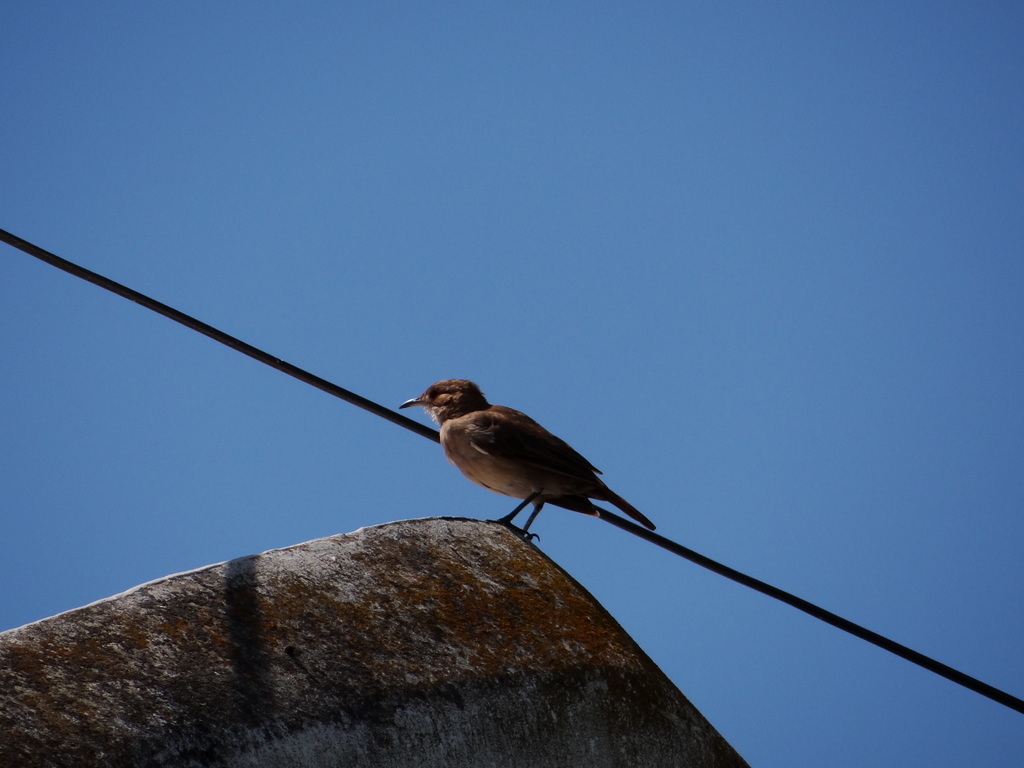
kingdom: Animalia
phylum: Chordata
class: Aves
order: Passeriformes
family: Furnariidae
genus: Furnarius
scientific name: Furnarius rufus
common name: Rufous hornero
